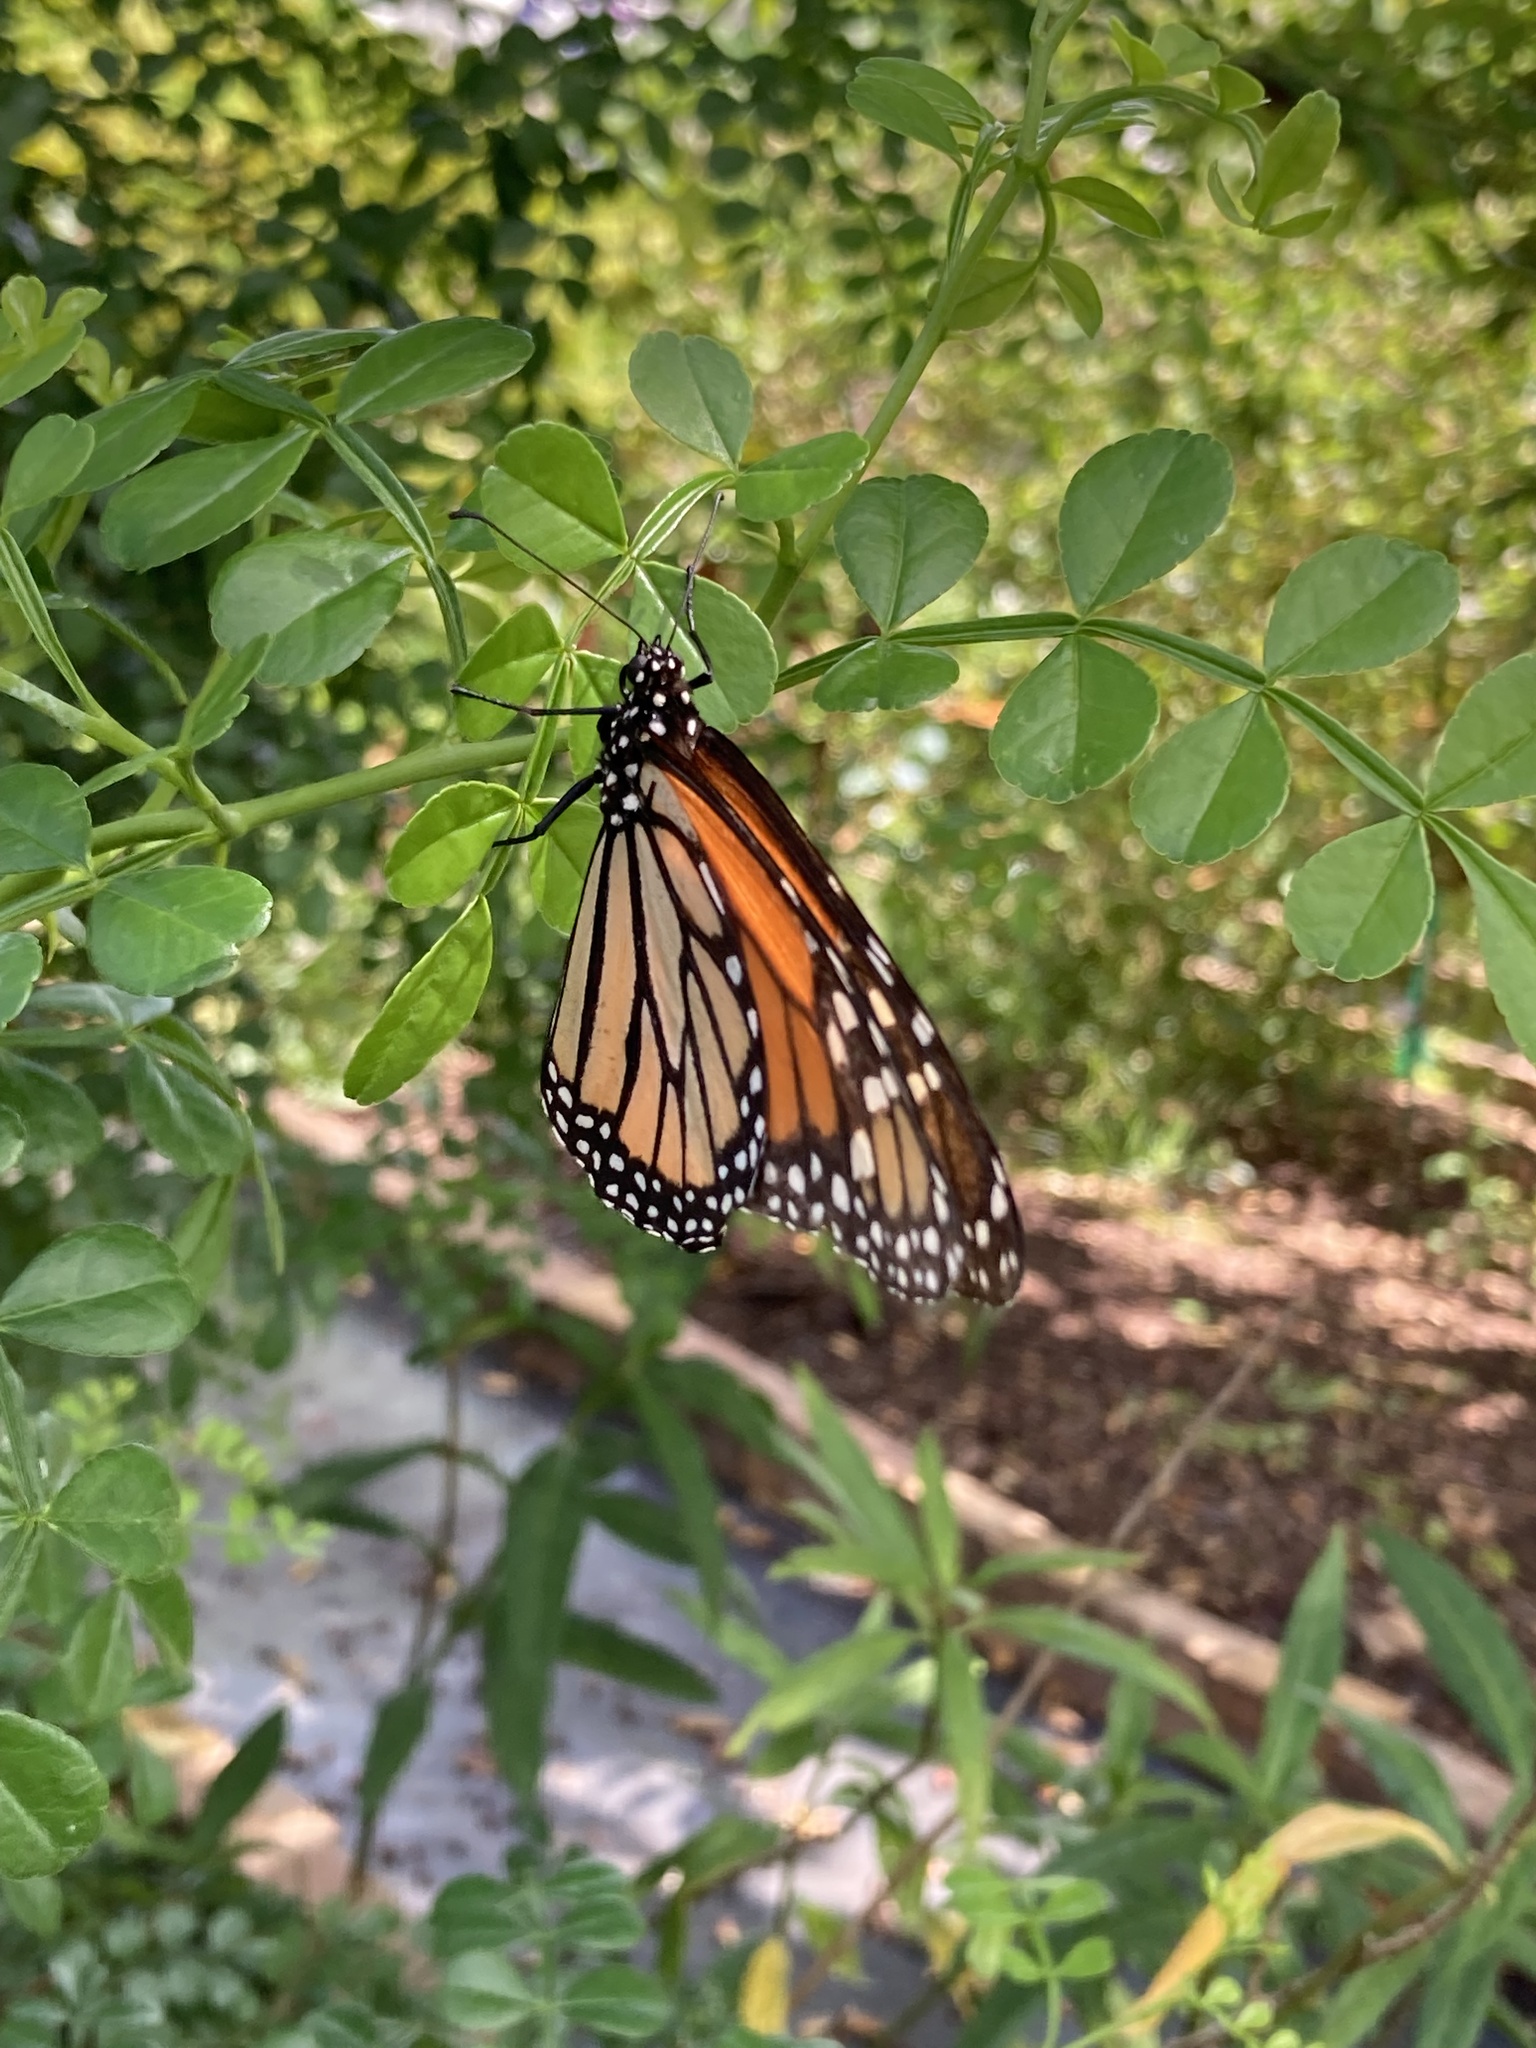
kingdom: Animalia
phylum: Arthropoda
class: Insecta
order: Lepidoptera
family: Nymphalidae
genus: Danaus
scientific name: Danaus plexippus
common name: Monarch
